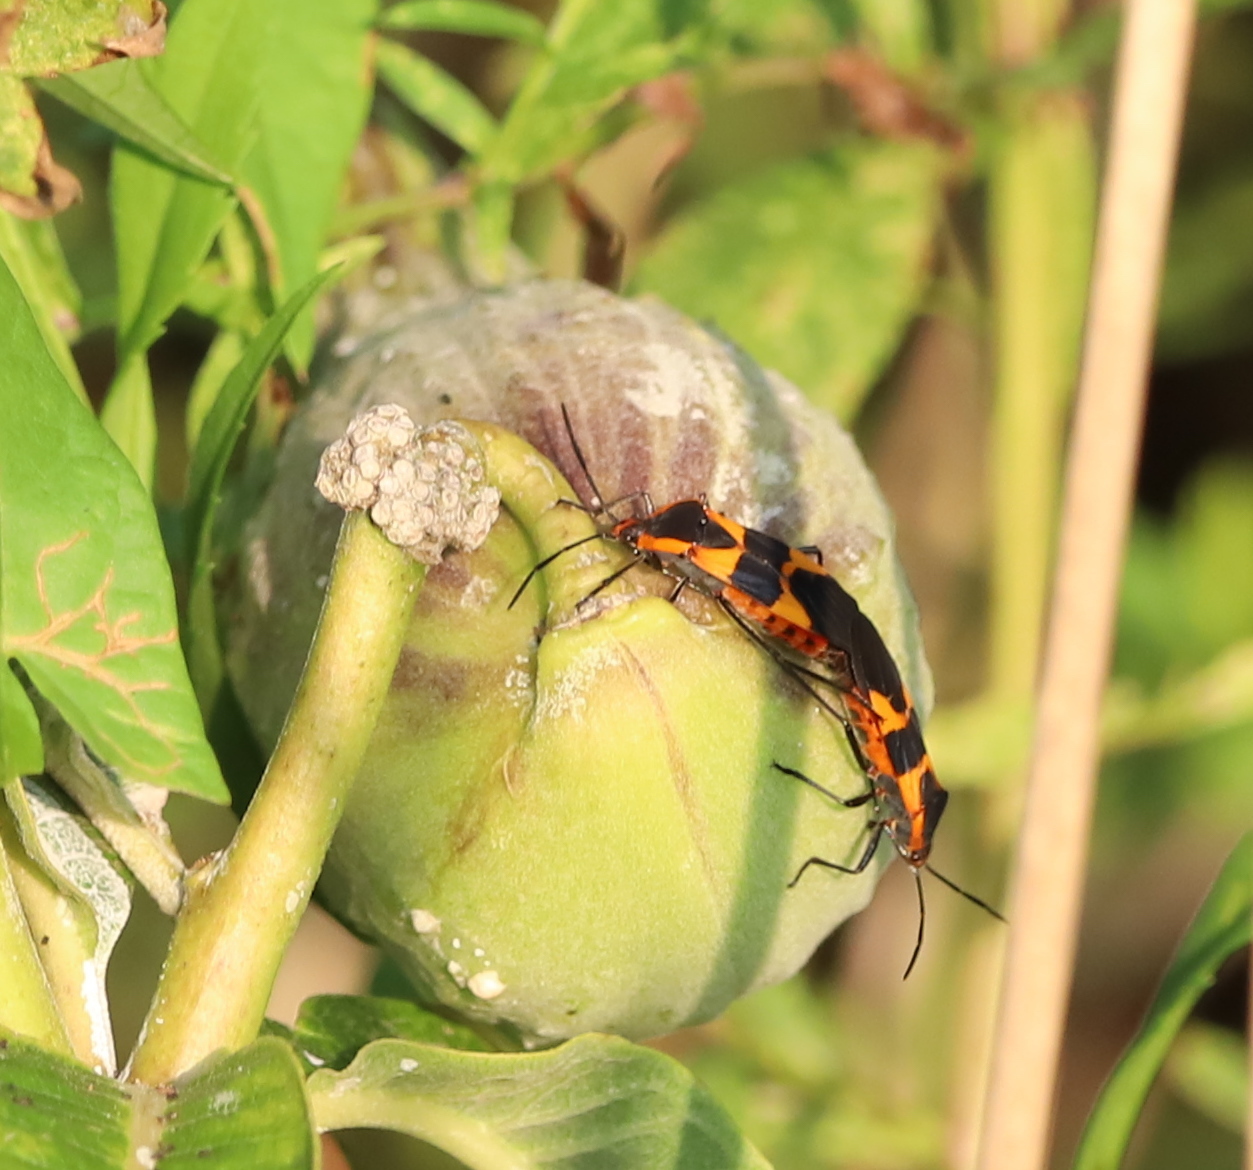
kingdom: Animalia
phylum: Arthropoda
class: Insecta
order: Hemiptera
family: Lygaeidae
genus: Oncopeltus
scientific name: Oncopeltus fasciatus
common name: Large milkweed bug
